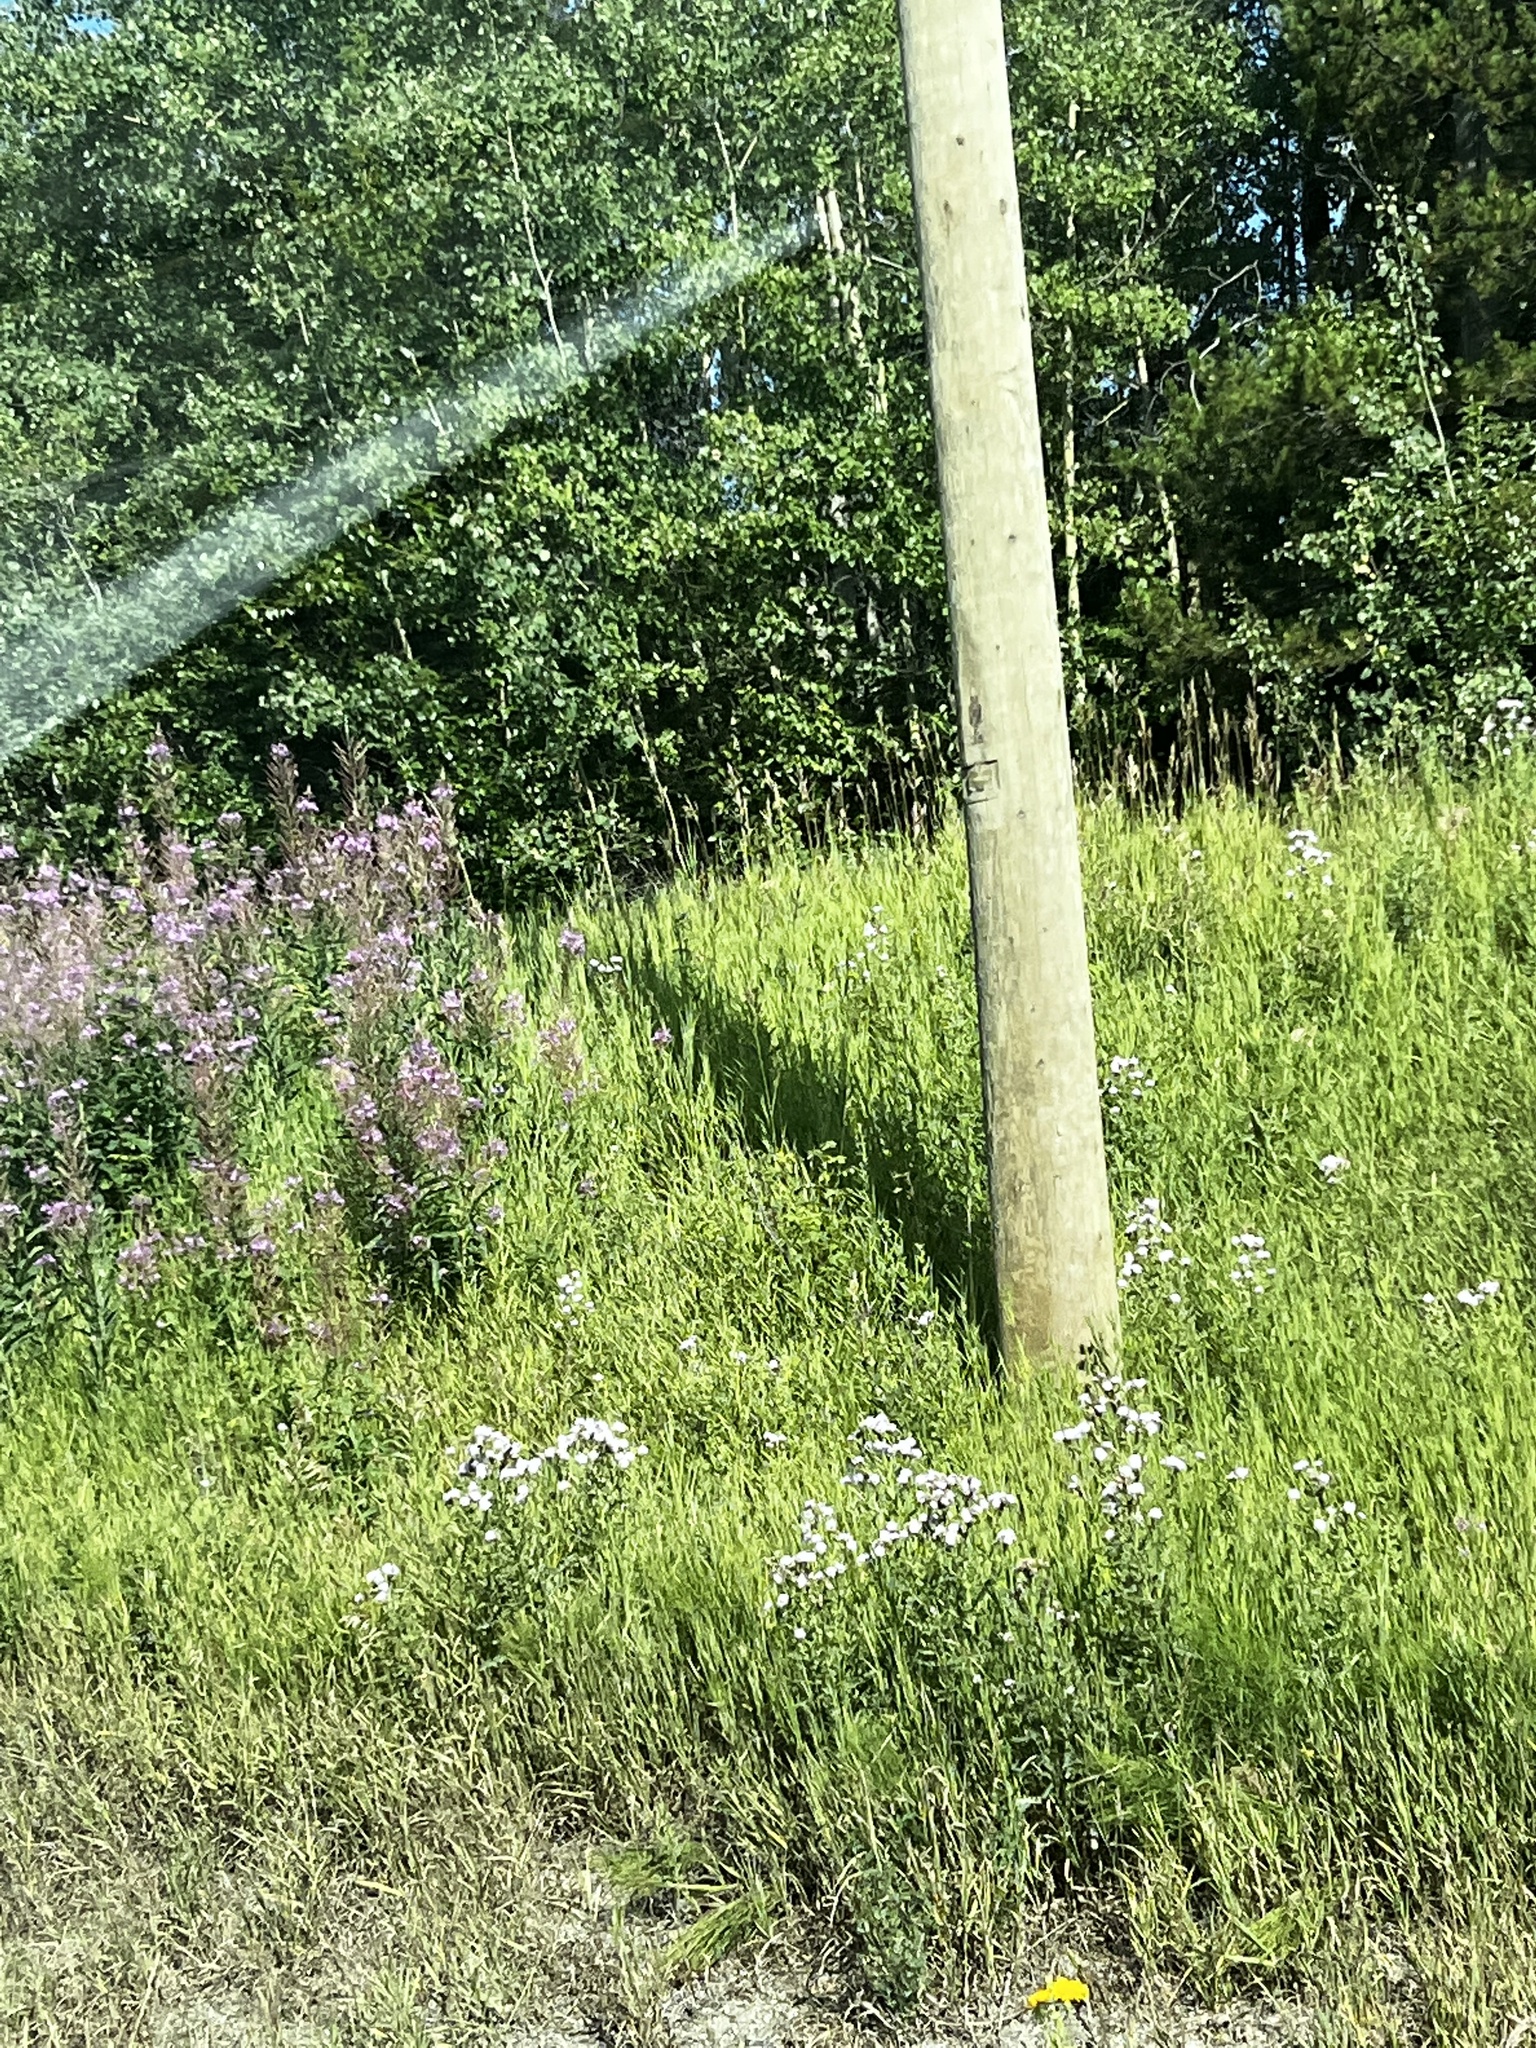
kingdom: Plantae
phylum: Tracheophyta
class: Magnoliopsida
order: Myrtales
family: Onagraceae
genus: Chamaenerion
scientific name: Chamaenerion angustifolium
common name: Fireweed
